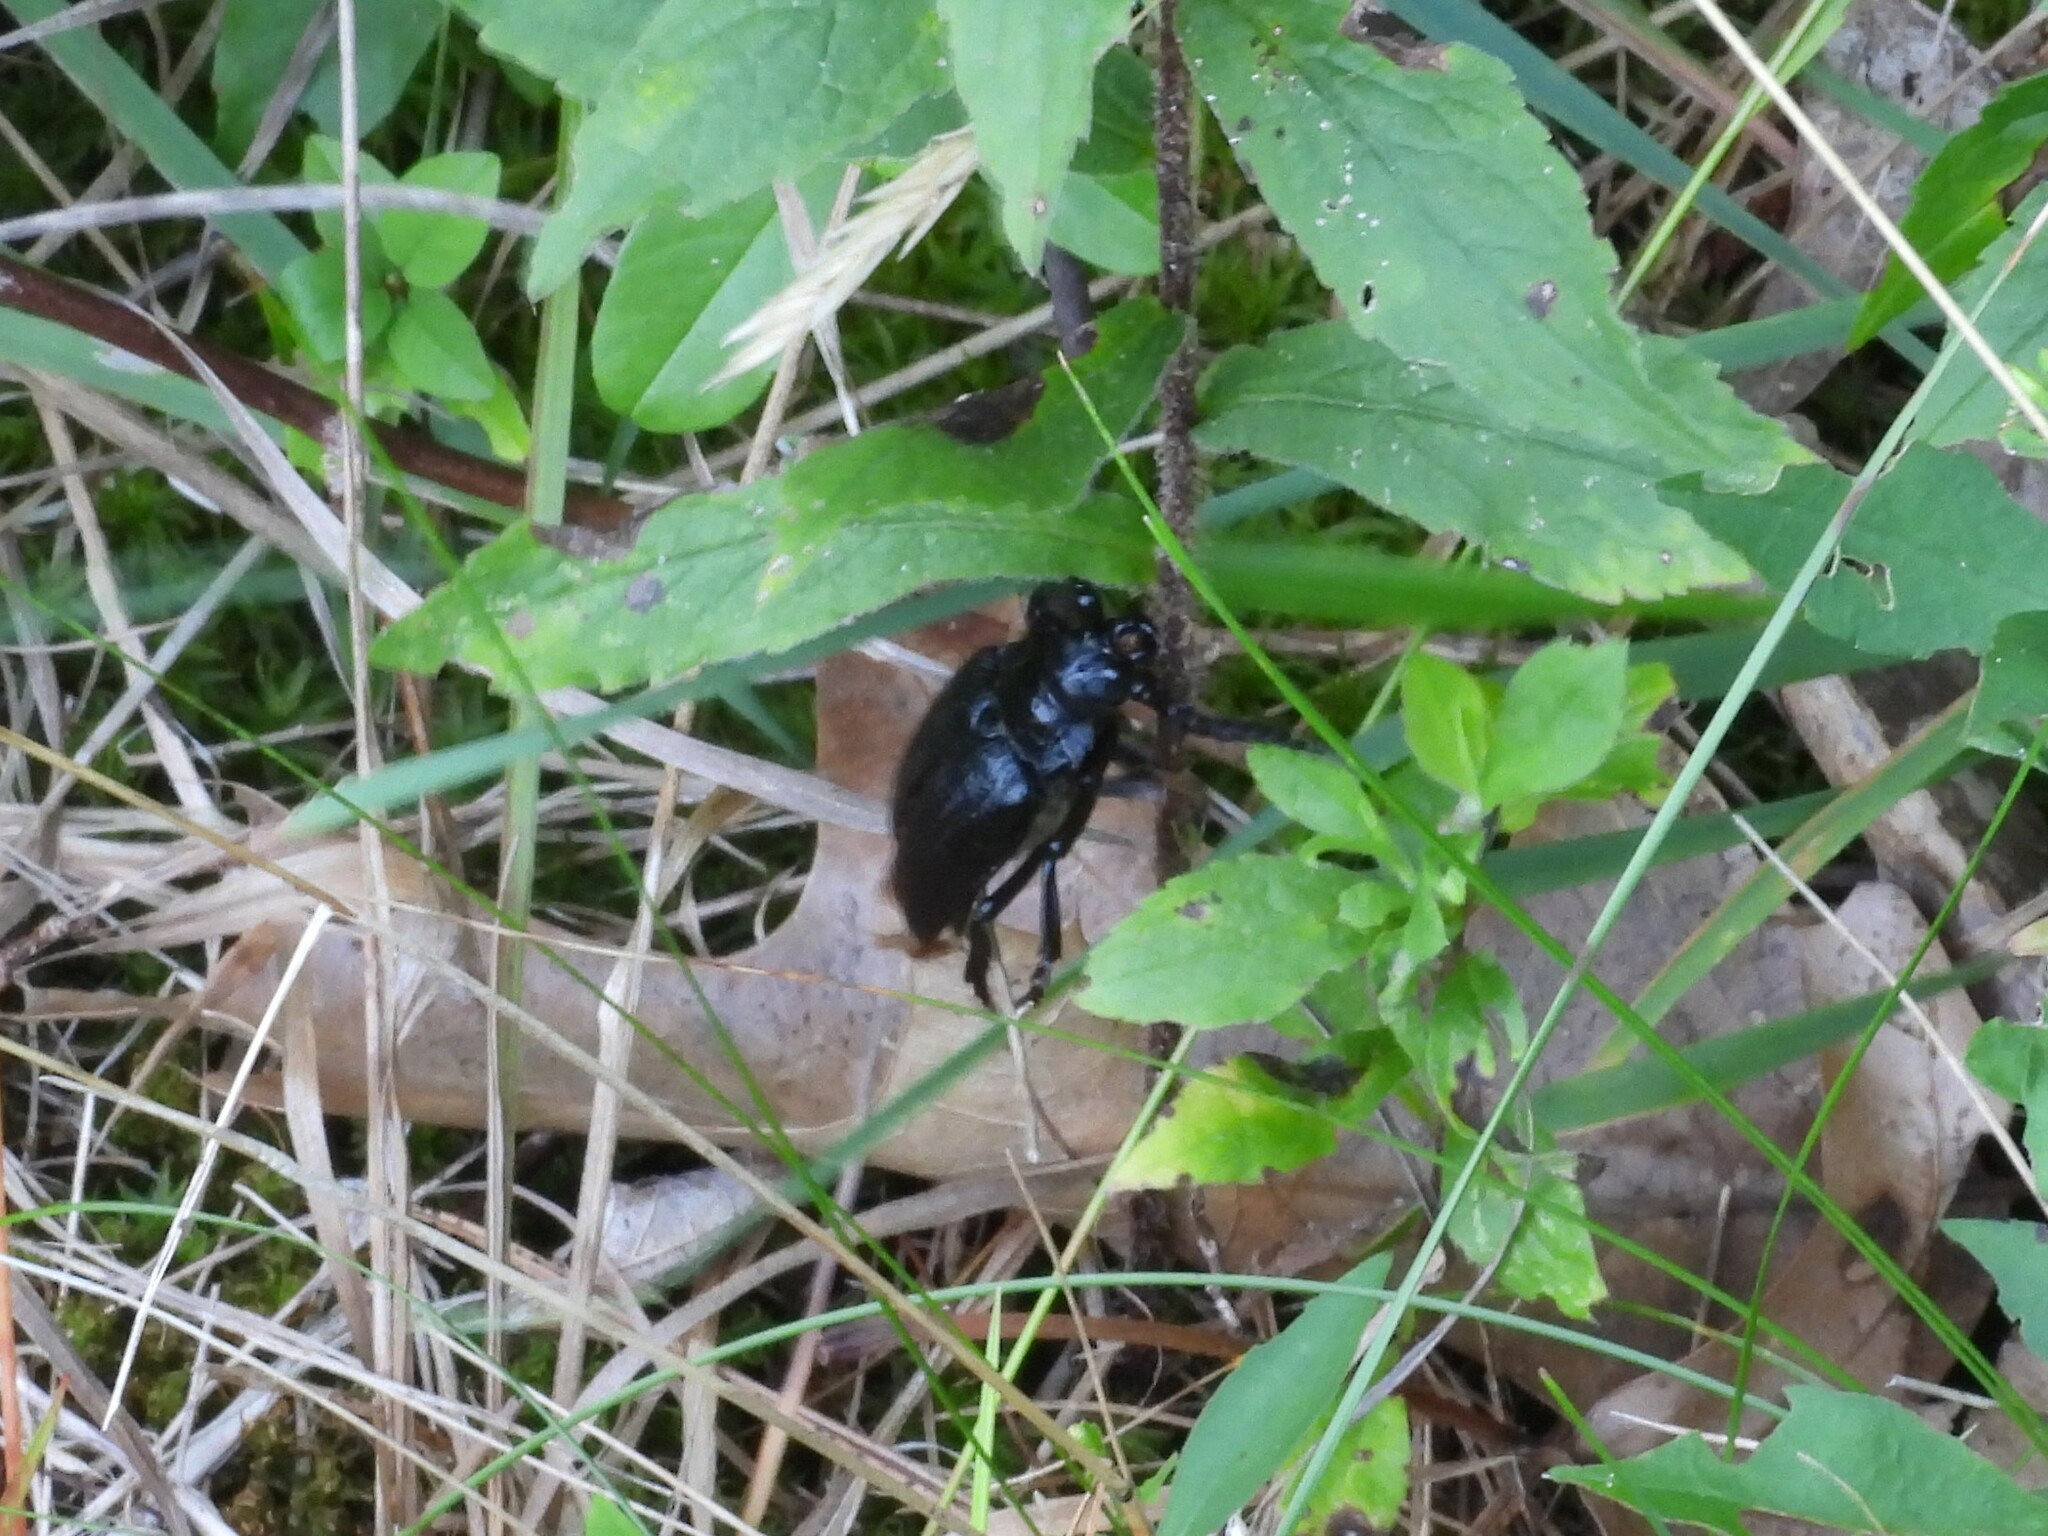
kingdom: Animalia
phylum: Arthropoda
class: Insecta
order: Coleoptera
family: Cerambycidae
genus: Prionus
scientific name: Prionus laticollis
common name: Broad necked prionus
